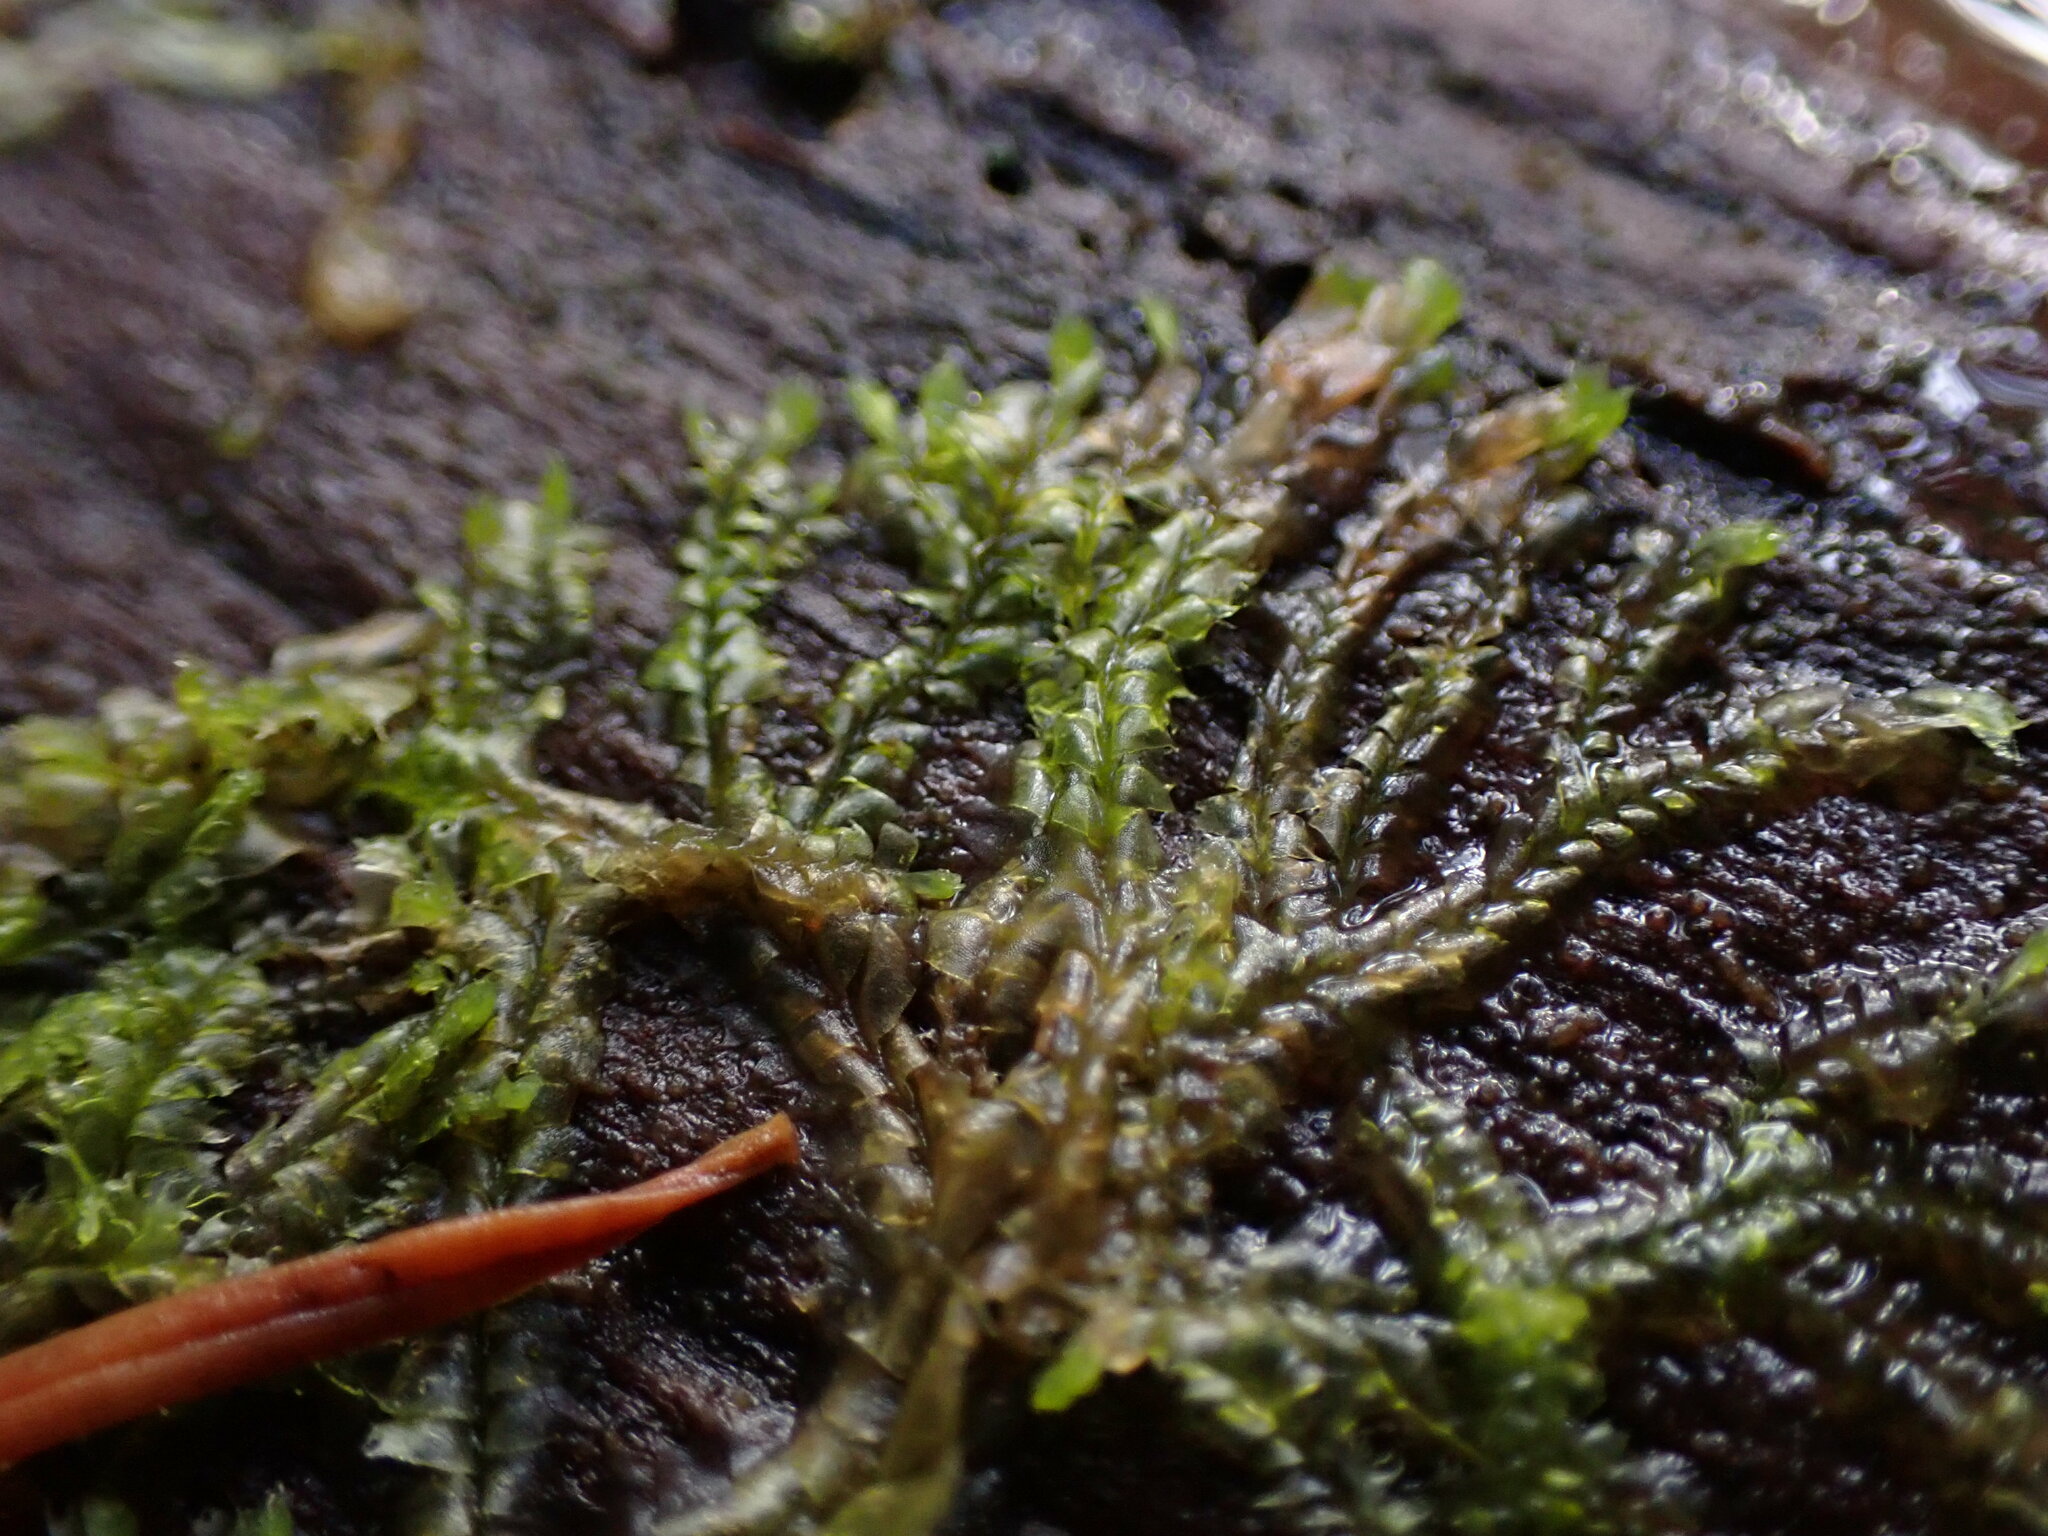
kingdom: Plantae
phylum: Marchantiophyta
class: Jungermanniopsida
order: Jungermanniales
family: Lophocoleaceae
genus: Lophocolea
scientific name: Lophocolea bidentata
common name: Bifid crestwort
